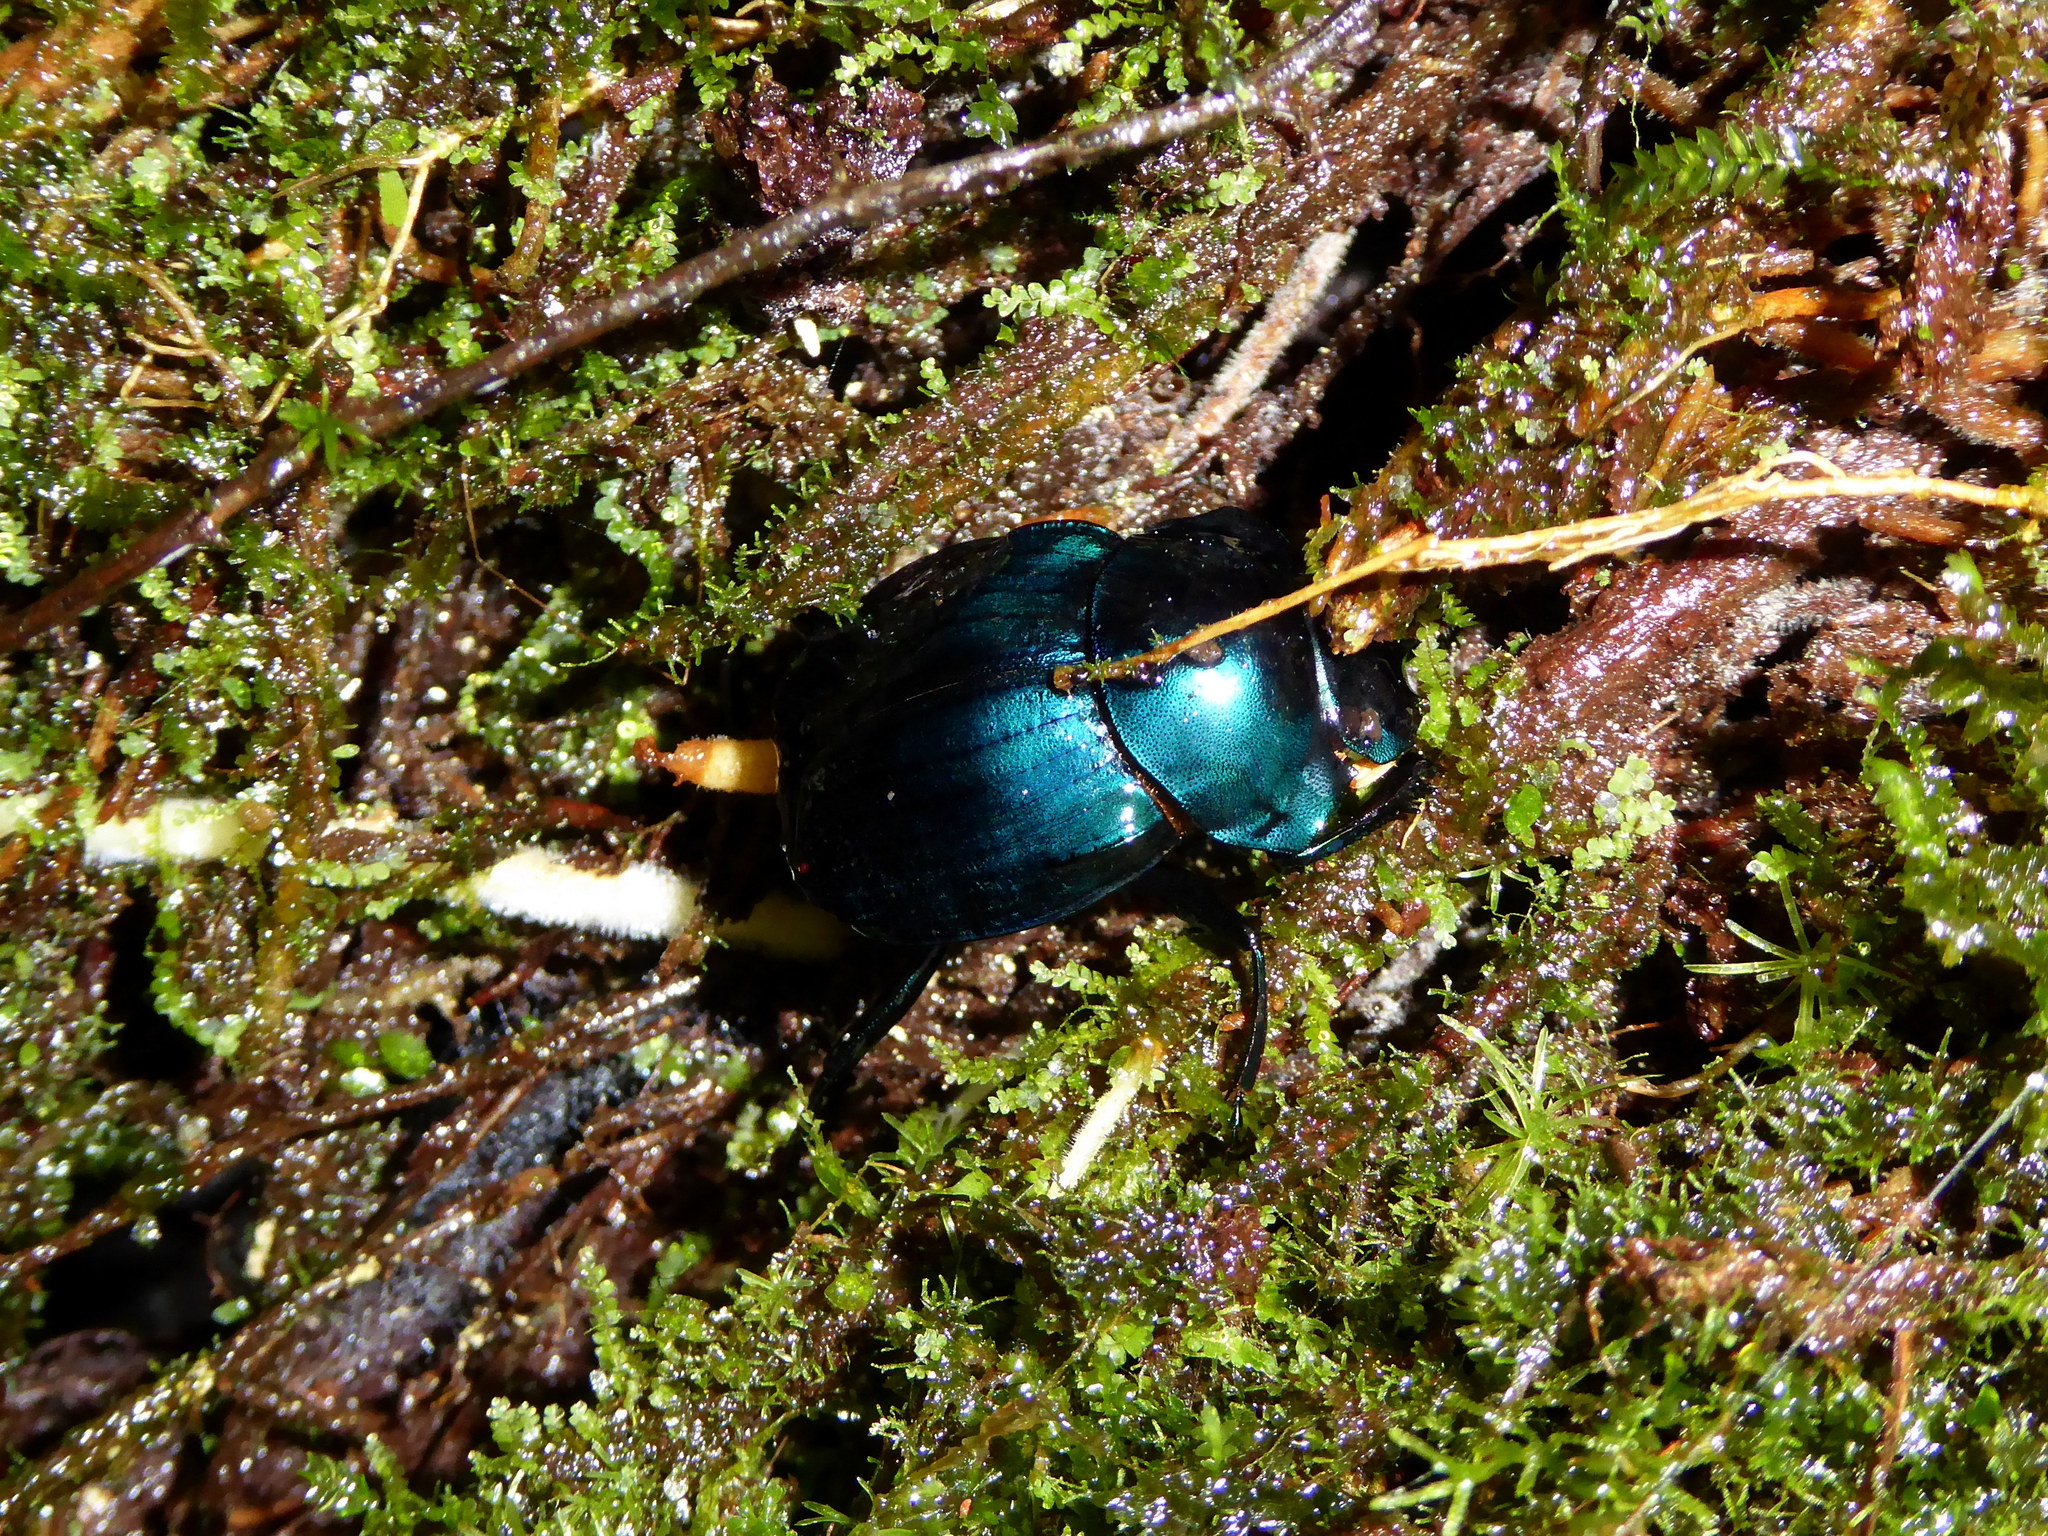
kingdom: Animalia
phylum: Arthropoda
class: Insecta
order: Coleoptera
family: Scarabaeidae
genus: Deltochilum
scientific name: Deltochilum burmeisteri
